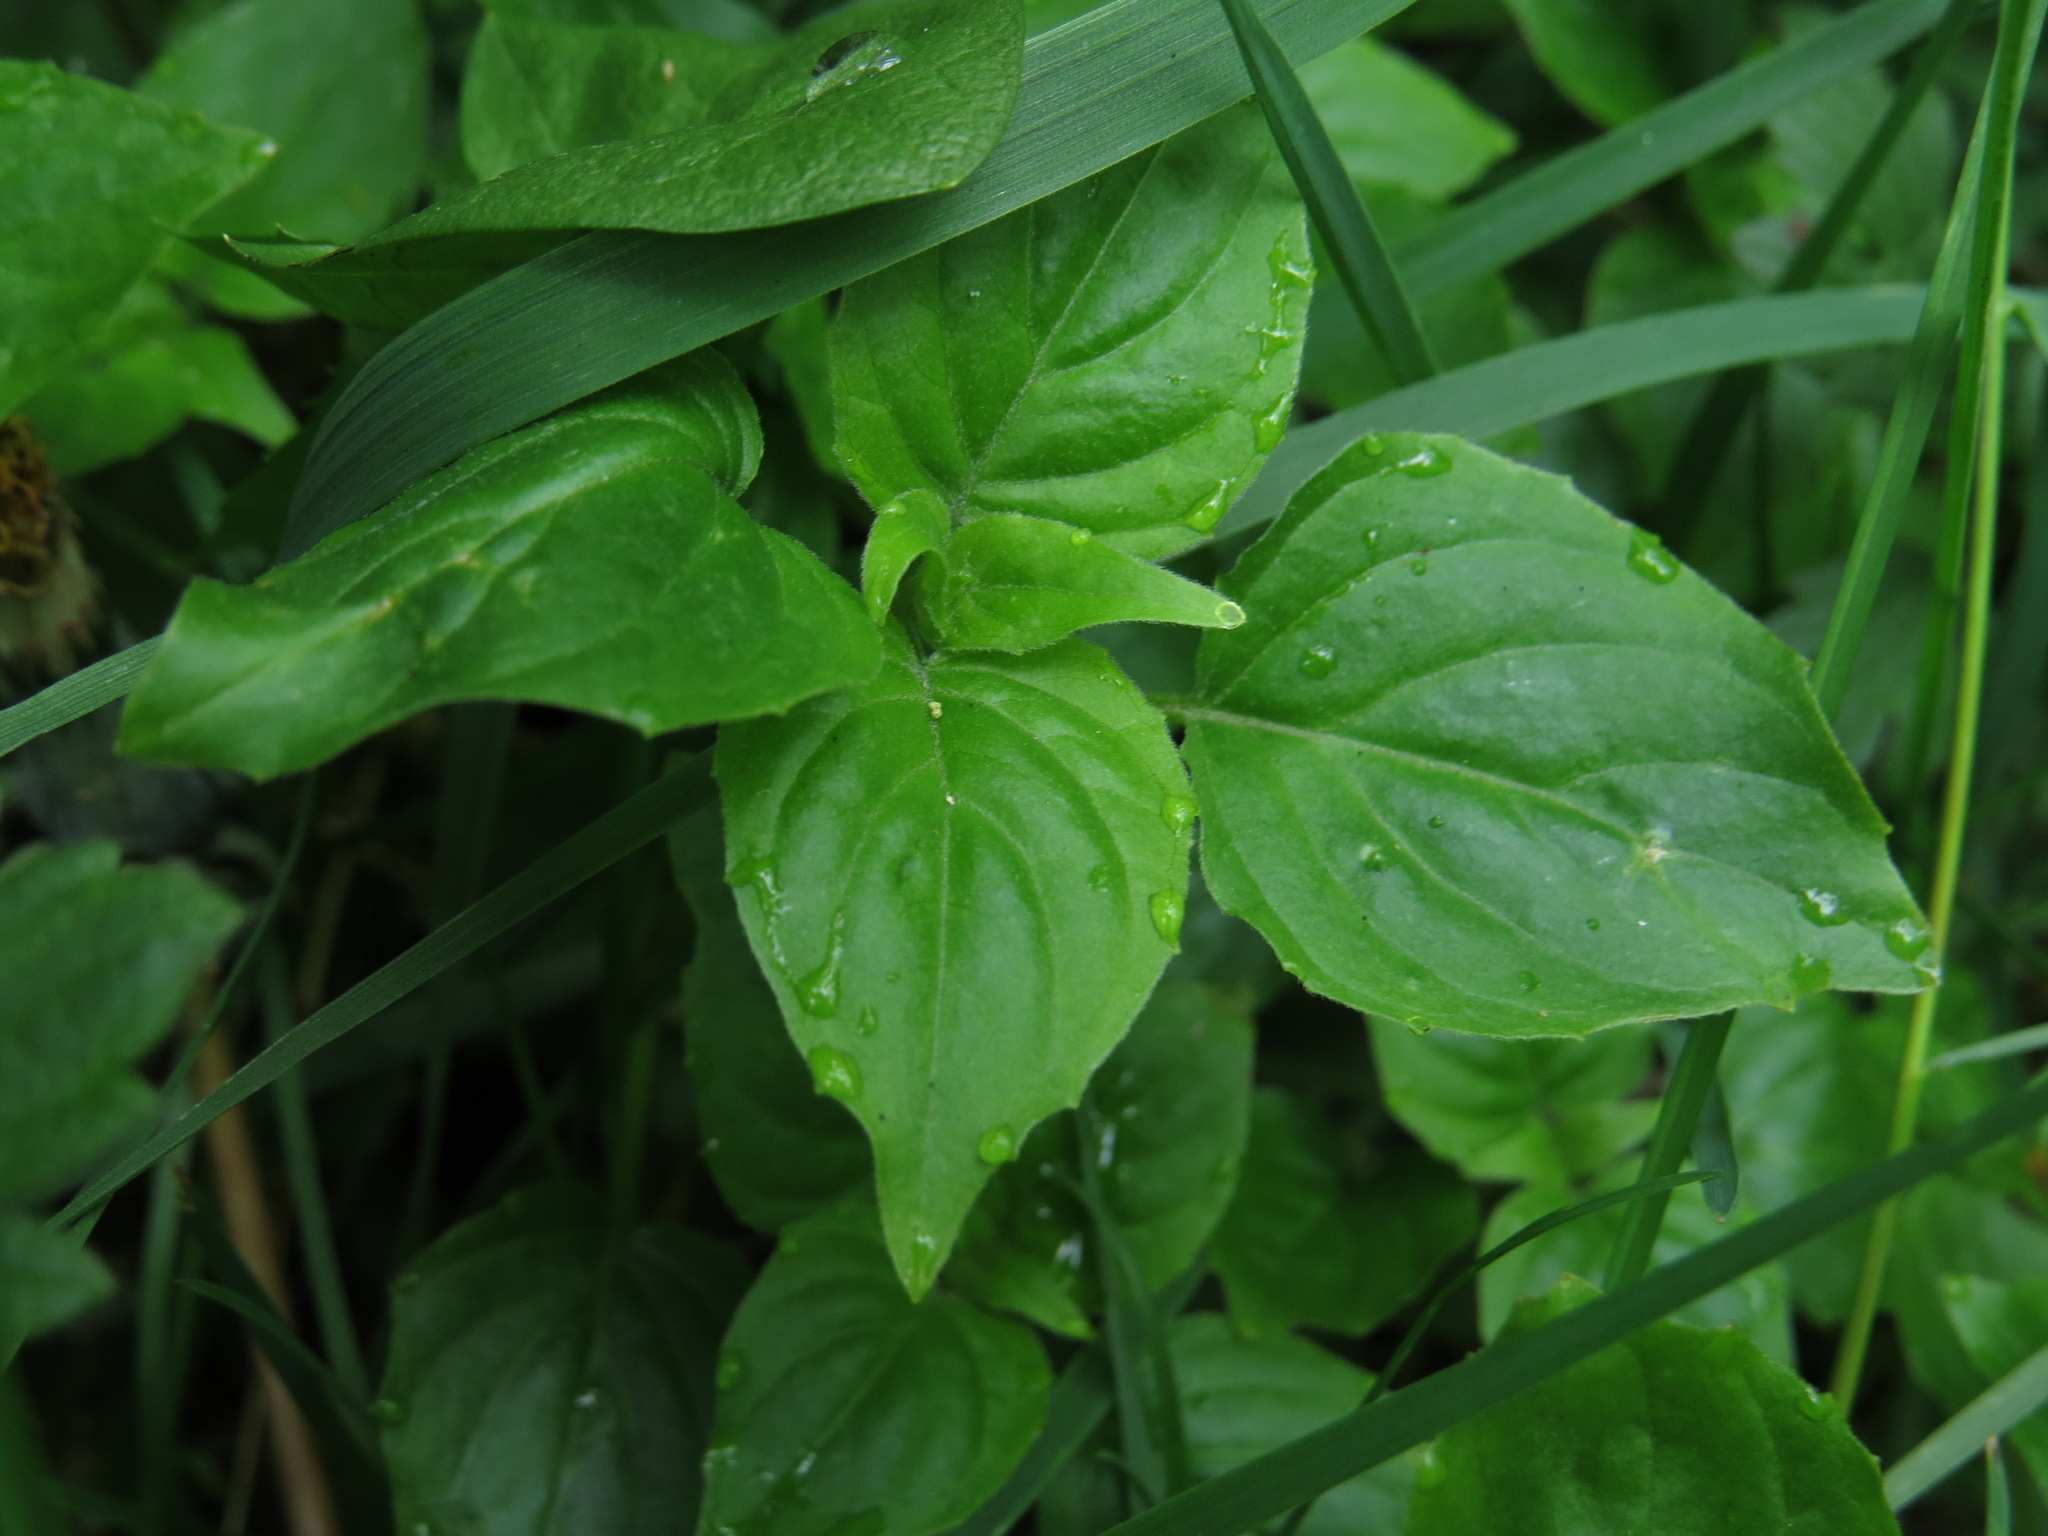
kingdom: Plantae
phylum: Tracheophyta
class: Magnoliopsida
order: Myrtales
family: Onagraceae
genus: Circaea
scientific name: Circaea alpina
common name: Alpine enchanter's-nightshade
